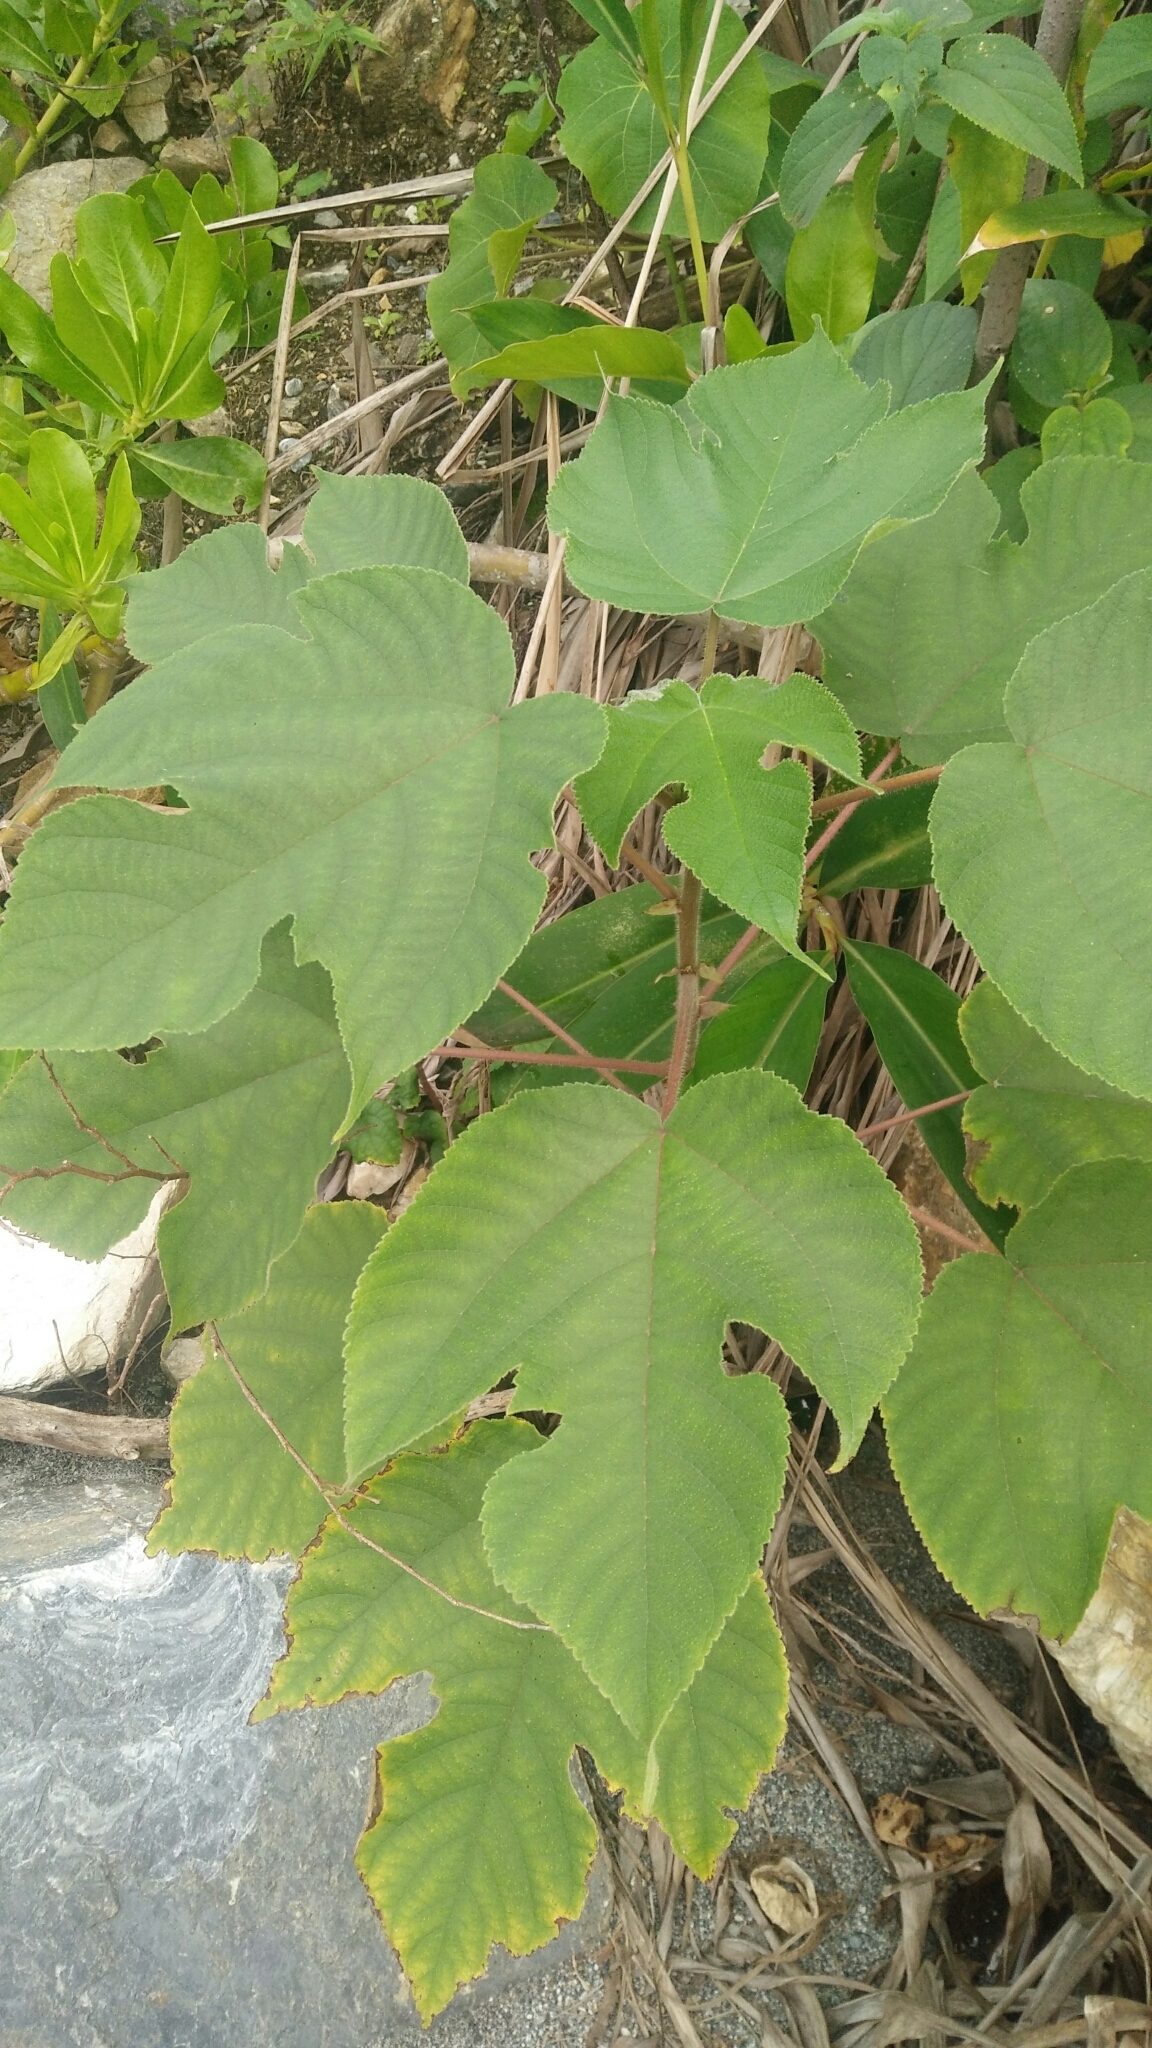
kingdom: Plantae
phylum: Tracheophyta
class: Magnoliopsida
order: Rosales
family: Moraceae
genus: Broussonetia
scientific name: Broussonetia papyrifera
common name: Paper mulberry
